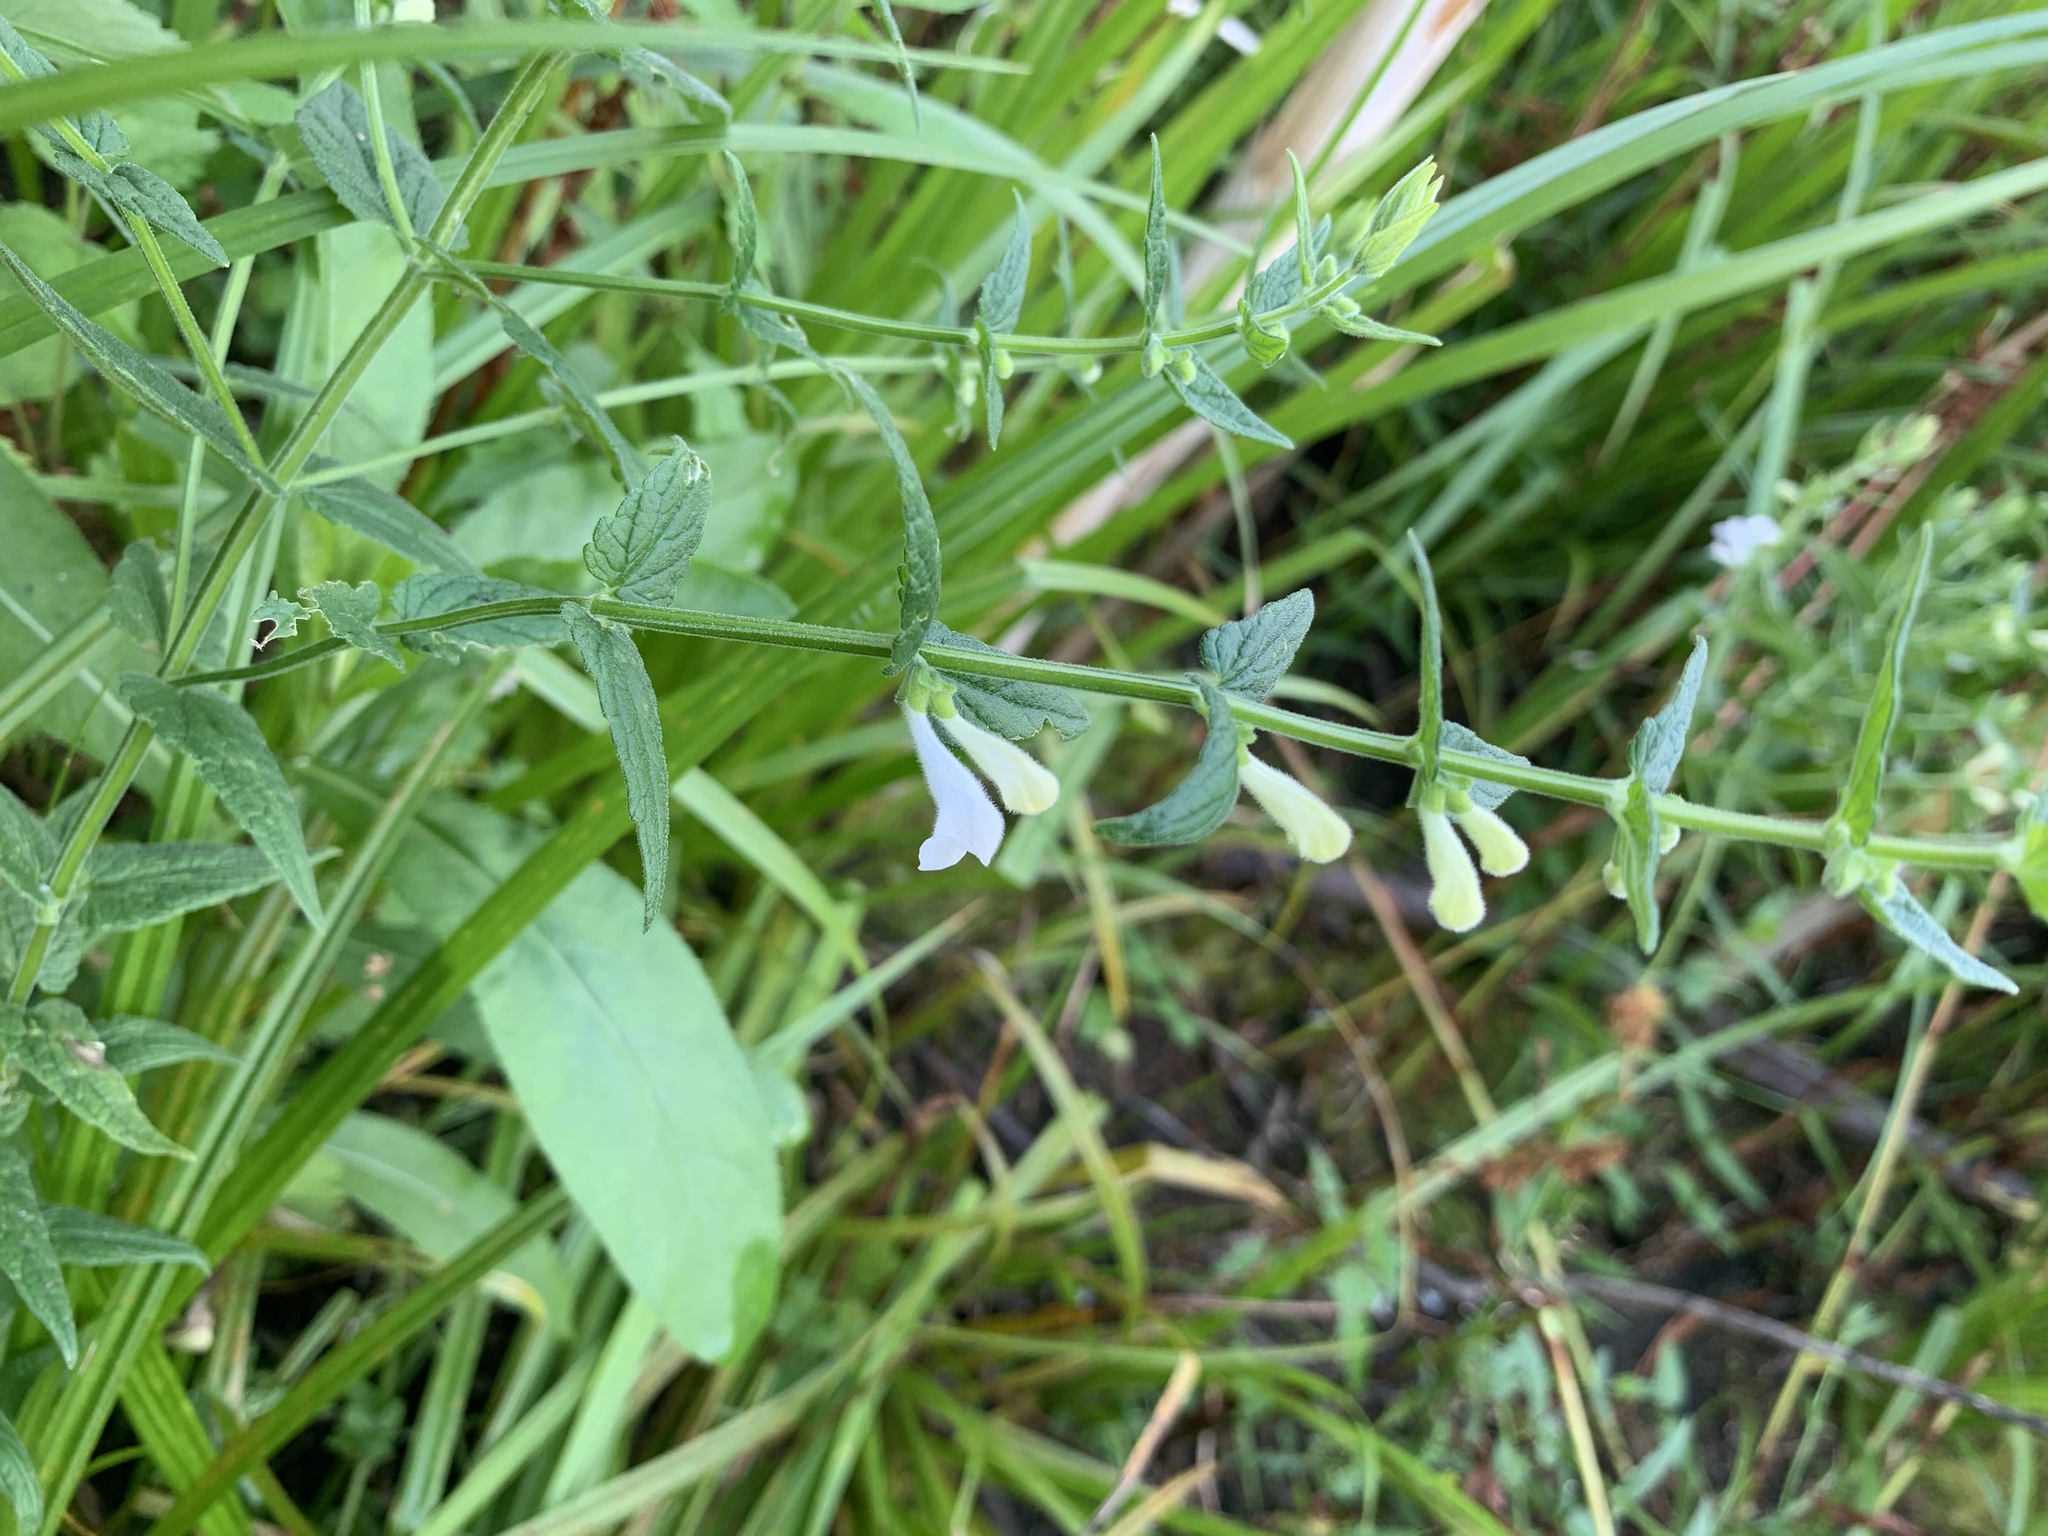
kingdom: Plantae
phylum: Tracheophyta
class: Magnoliopsida
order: Lamiales
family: Lamiaceae
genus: Scutellaria
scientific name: Scutellaria galericulata
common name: Skullcap
